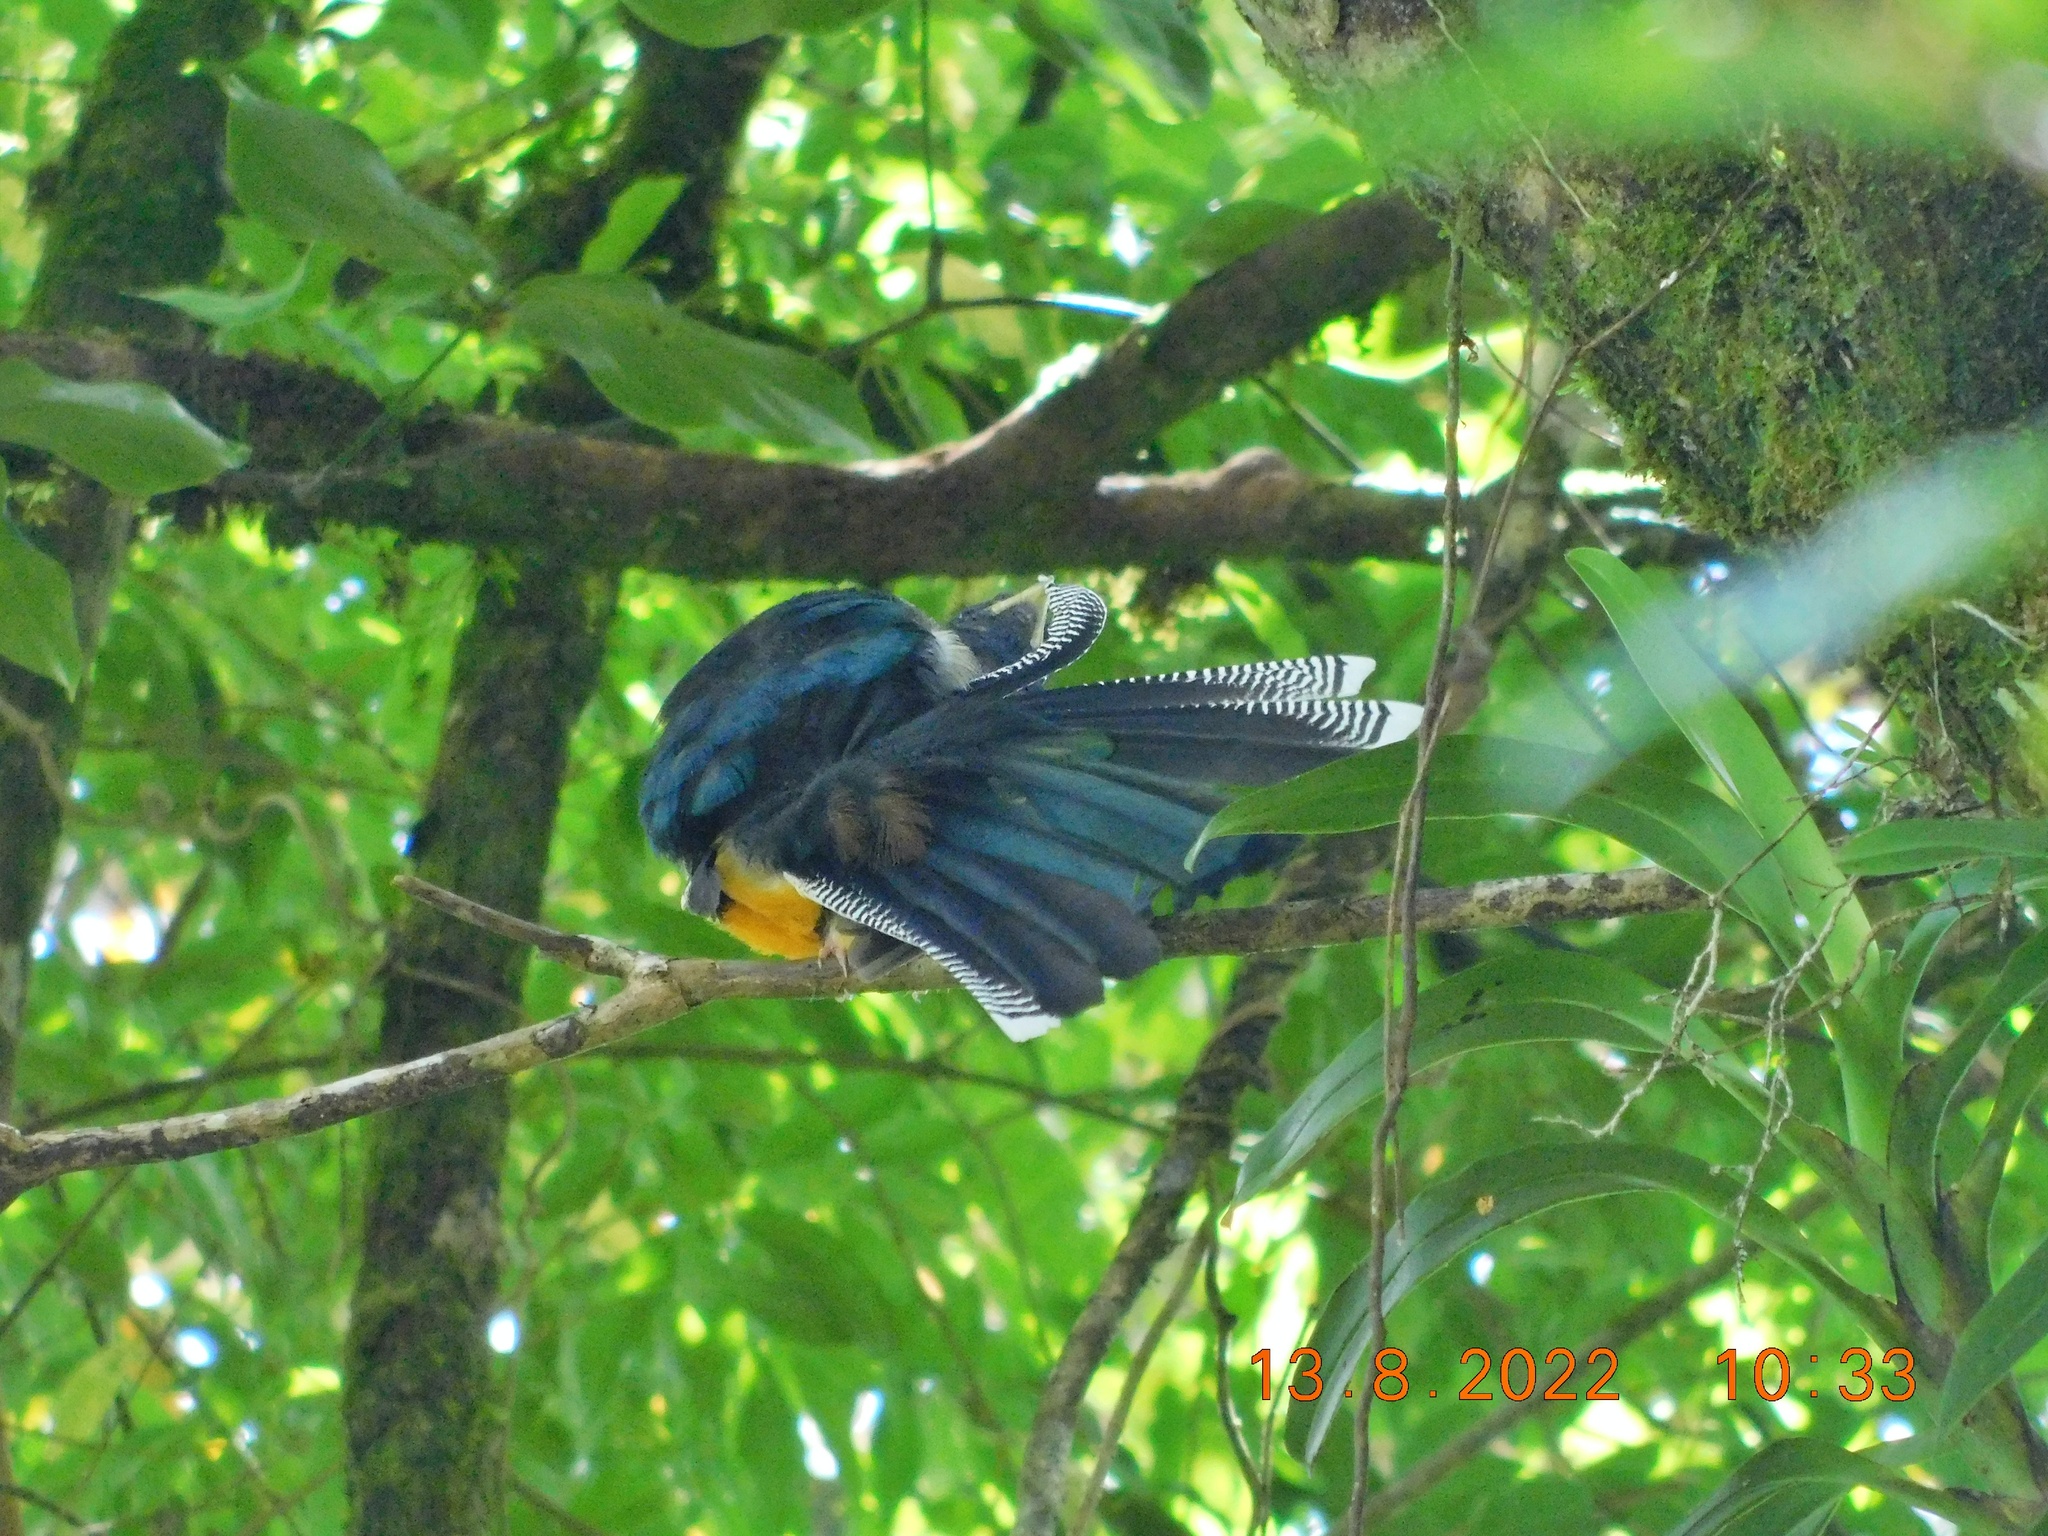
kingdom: Animalia
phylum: Chordata
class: Aves
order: Trogoniformes
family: Trogonidae
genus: Trogon
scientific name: Trogon collaris
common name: Collared trogon
